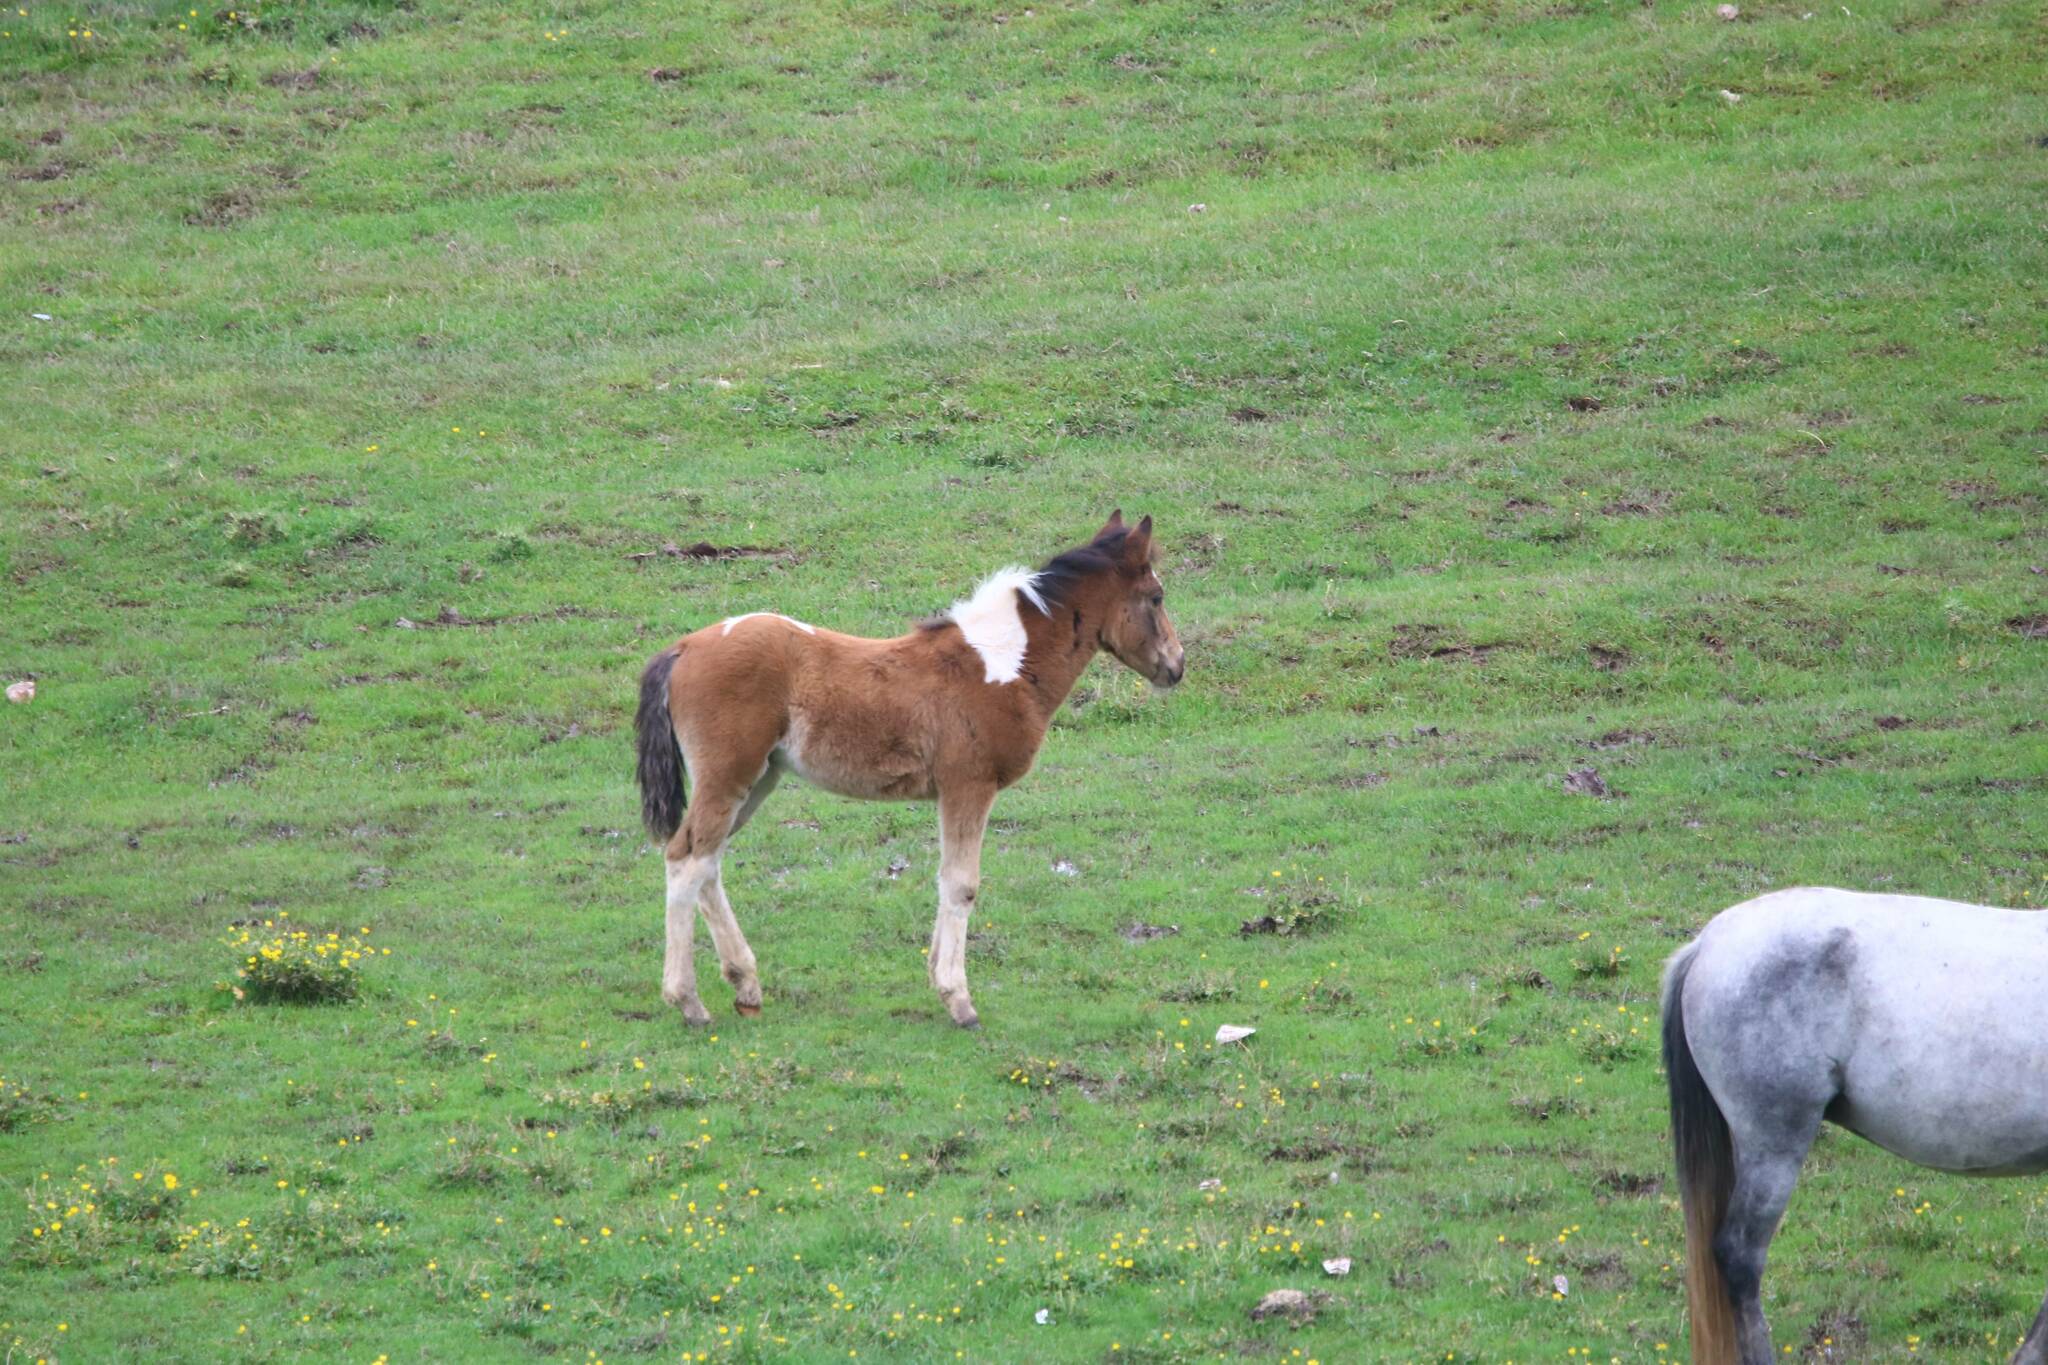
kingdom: Animalia
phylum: Chordata
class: Mammalia
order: Perissodactyla
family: Equidae
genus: Equus
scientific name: Equus caballus
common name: Horse
